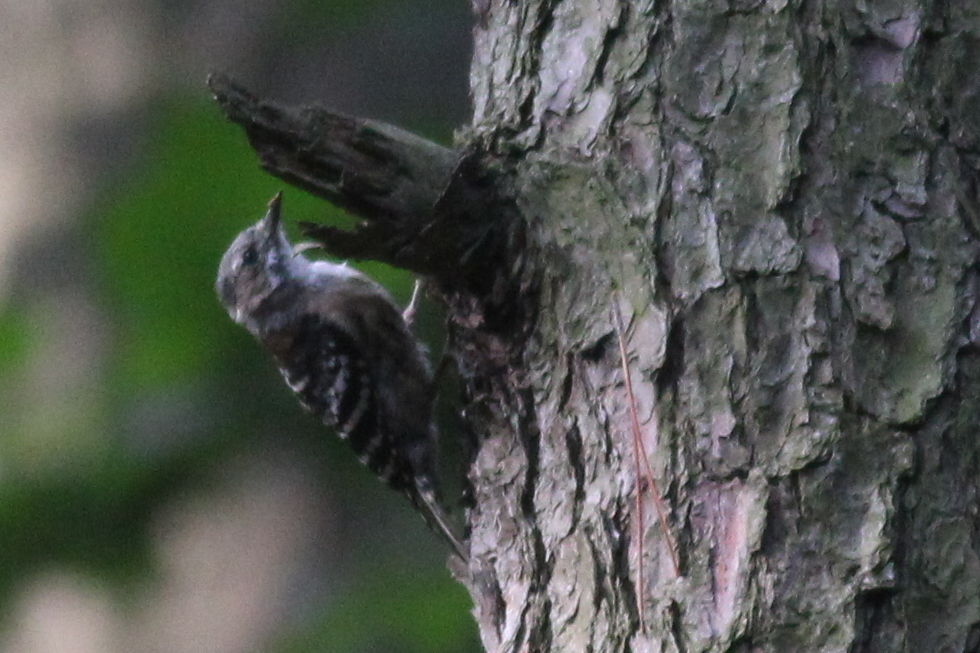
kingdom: Animalia
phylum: Chordata
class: Aves
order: Piciformes
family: Picidae
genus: Yungipicus
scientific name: Yungipicus kizuki
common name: Japanese pygmy woodpecker
